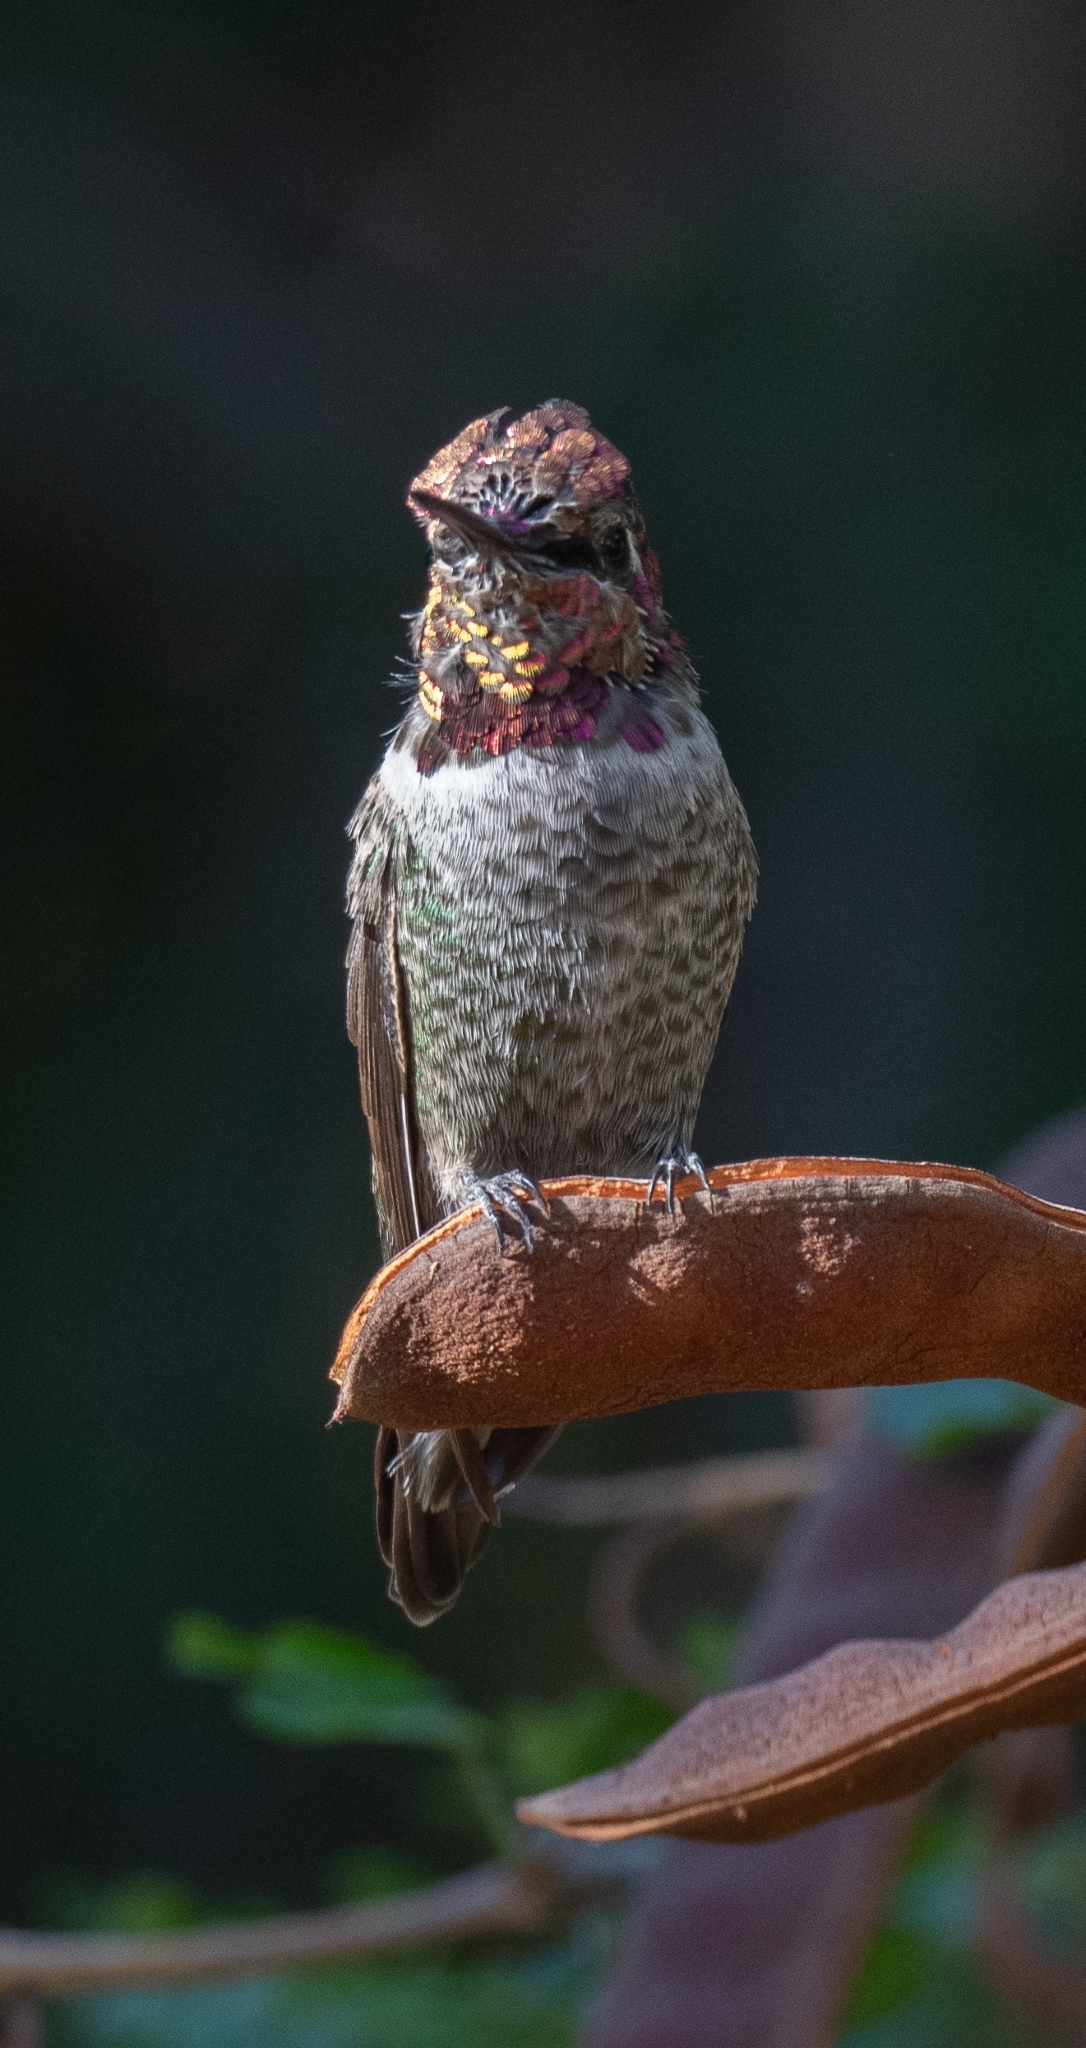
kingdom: Animalia
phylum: Chordata
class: Aves
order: Apodiformes
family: Trochilidae
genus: Calypte
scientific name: Calypte anna
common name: Anna's hummingbird
